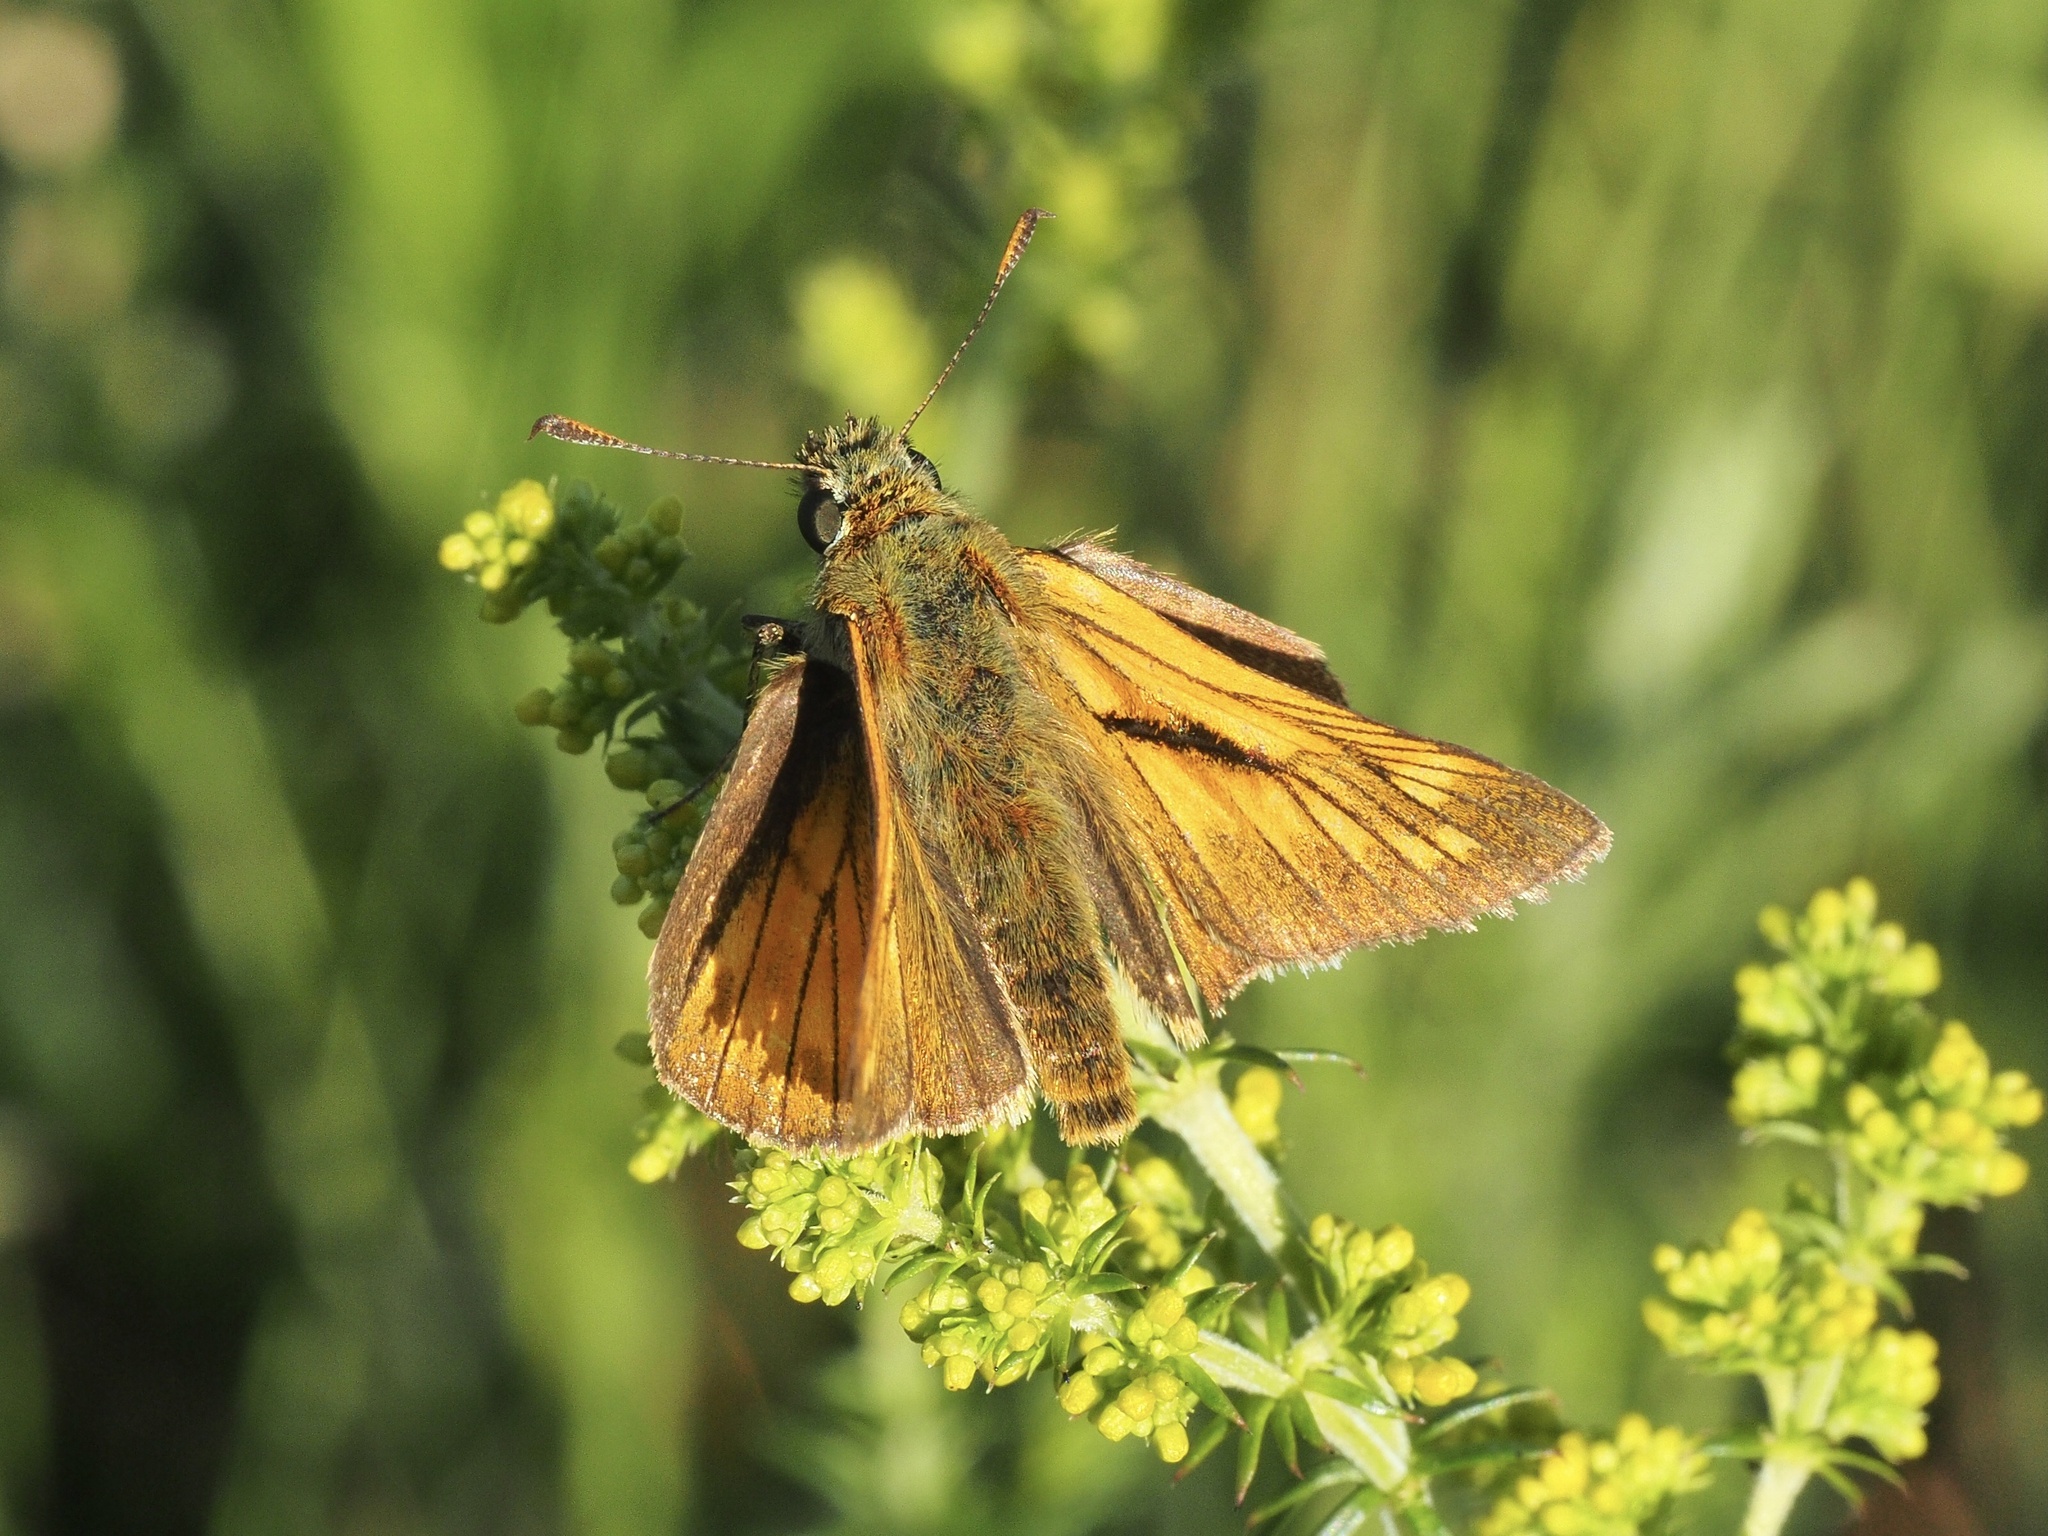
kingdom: Animalia
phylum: Arthropoda
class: Insecta
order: Lepidoptera
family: Hesperiidae
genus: Ochlodes
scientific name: Ochlodes venata
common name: Large skipper
